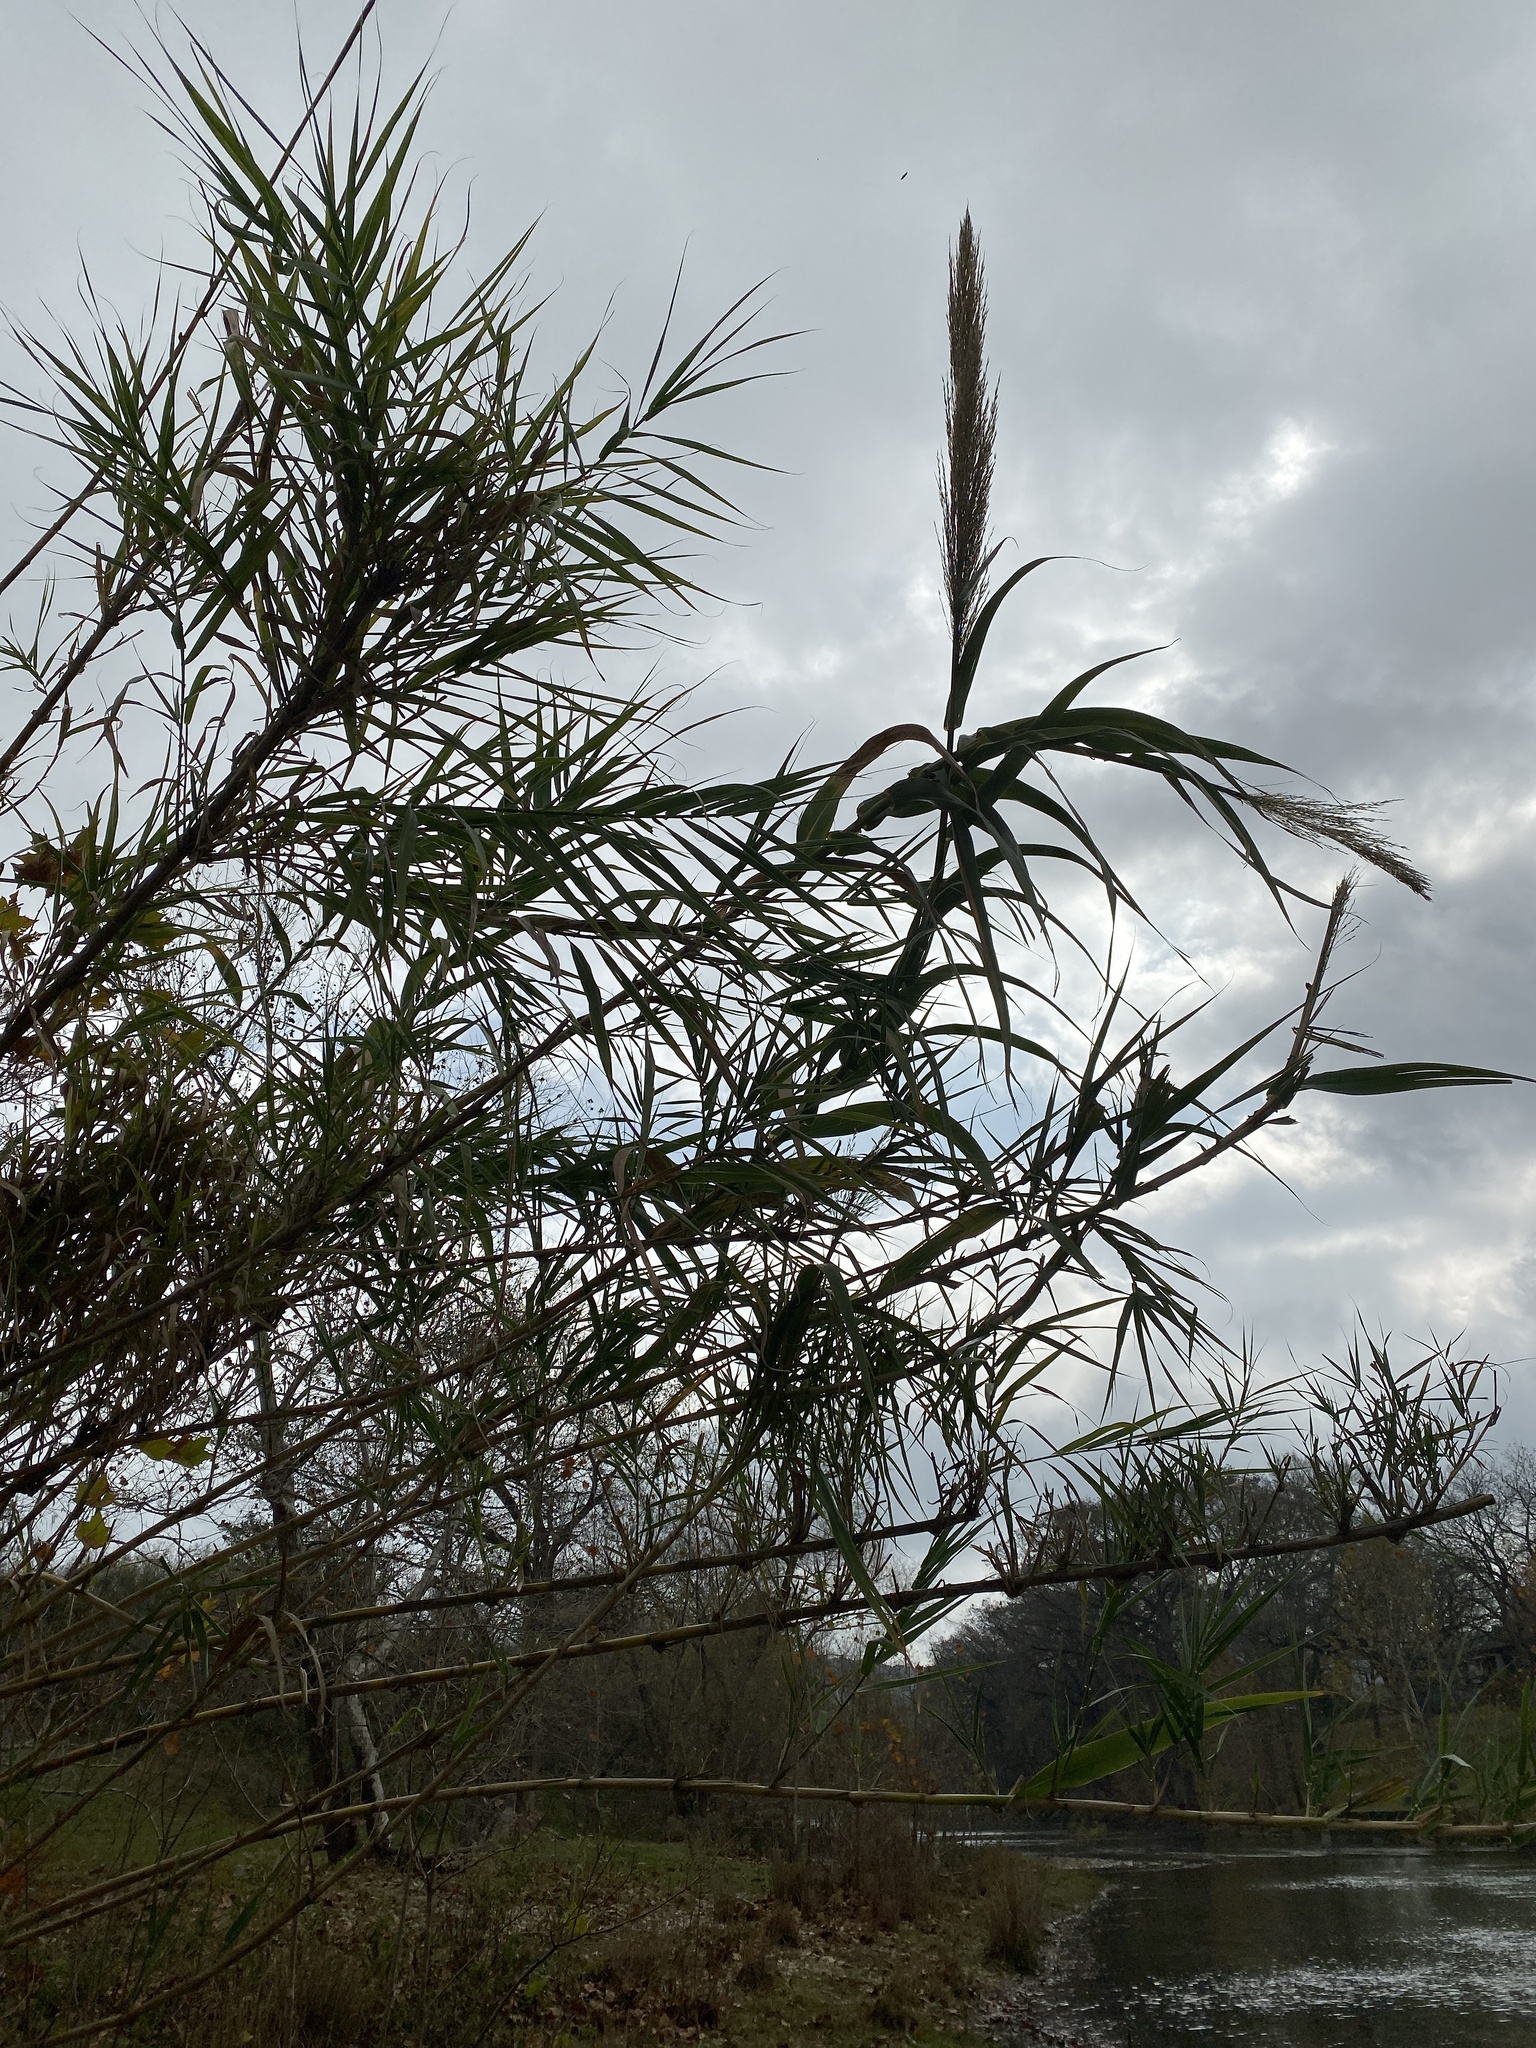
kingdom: Plantae
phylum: Tracheophyta
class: Liliopsida
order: Poales
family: Poaceae
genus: Arundo
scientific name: Arundo donax
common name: Giant reed
